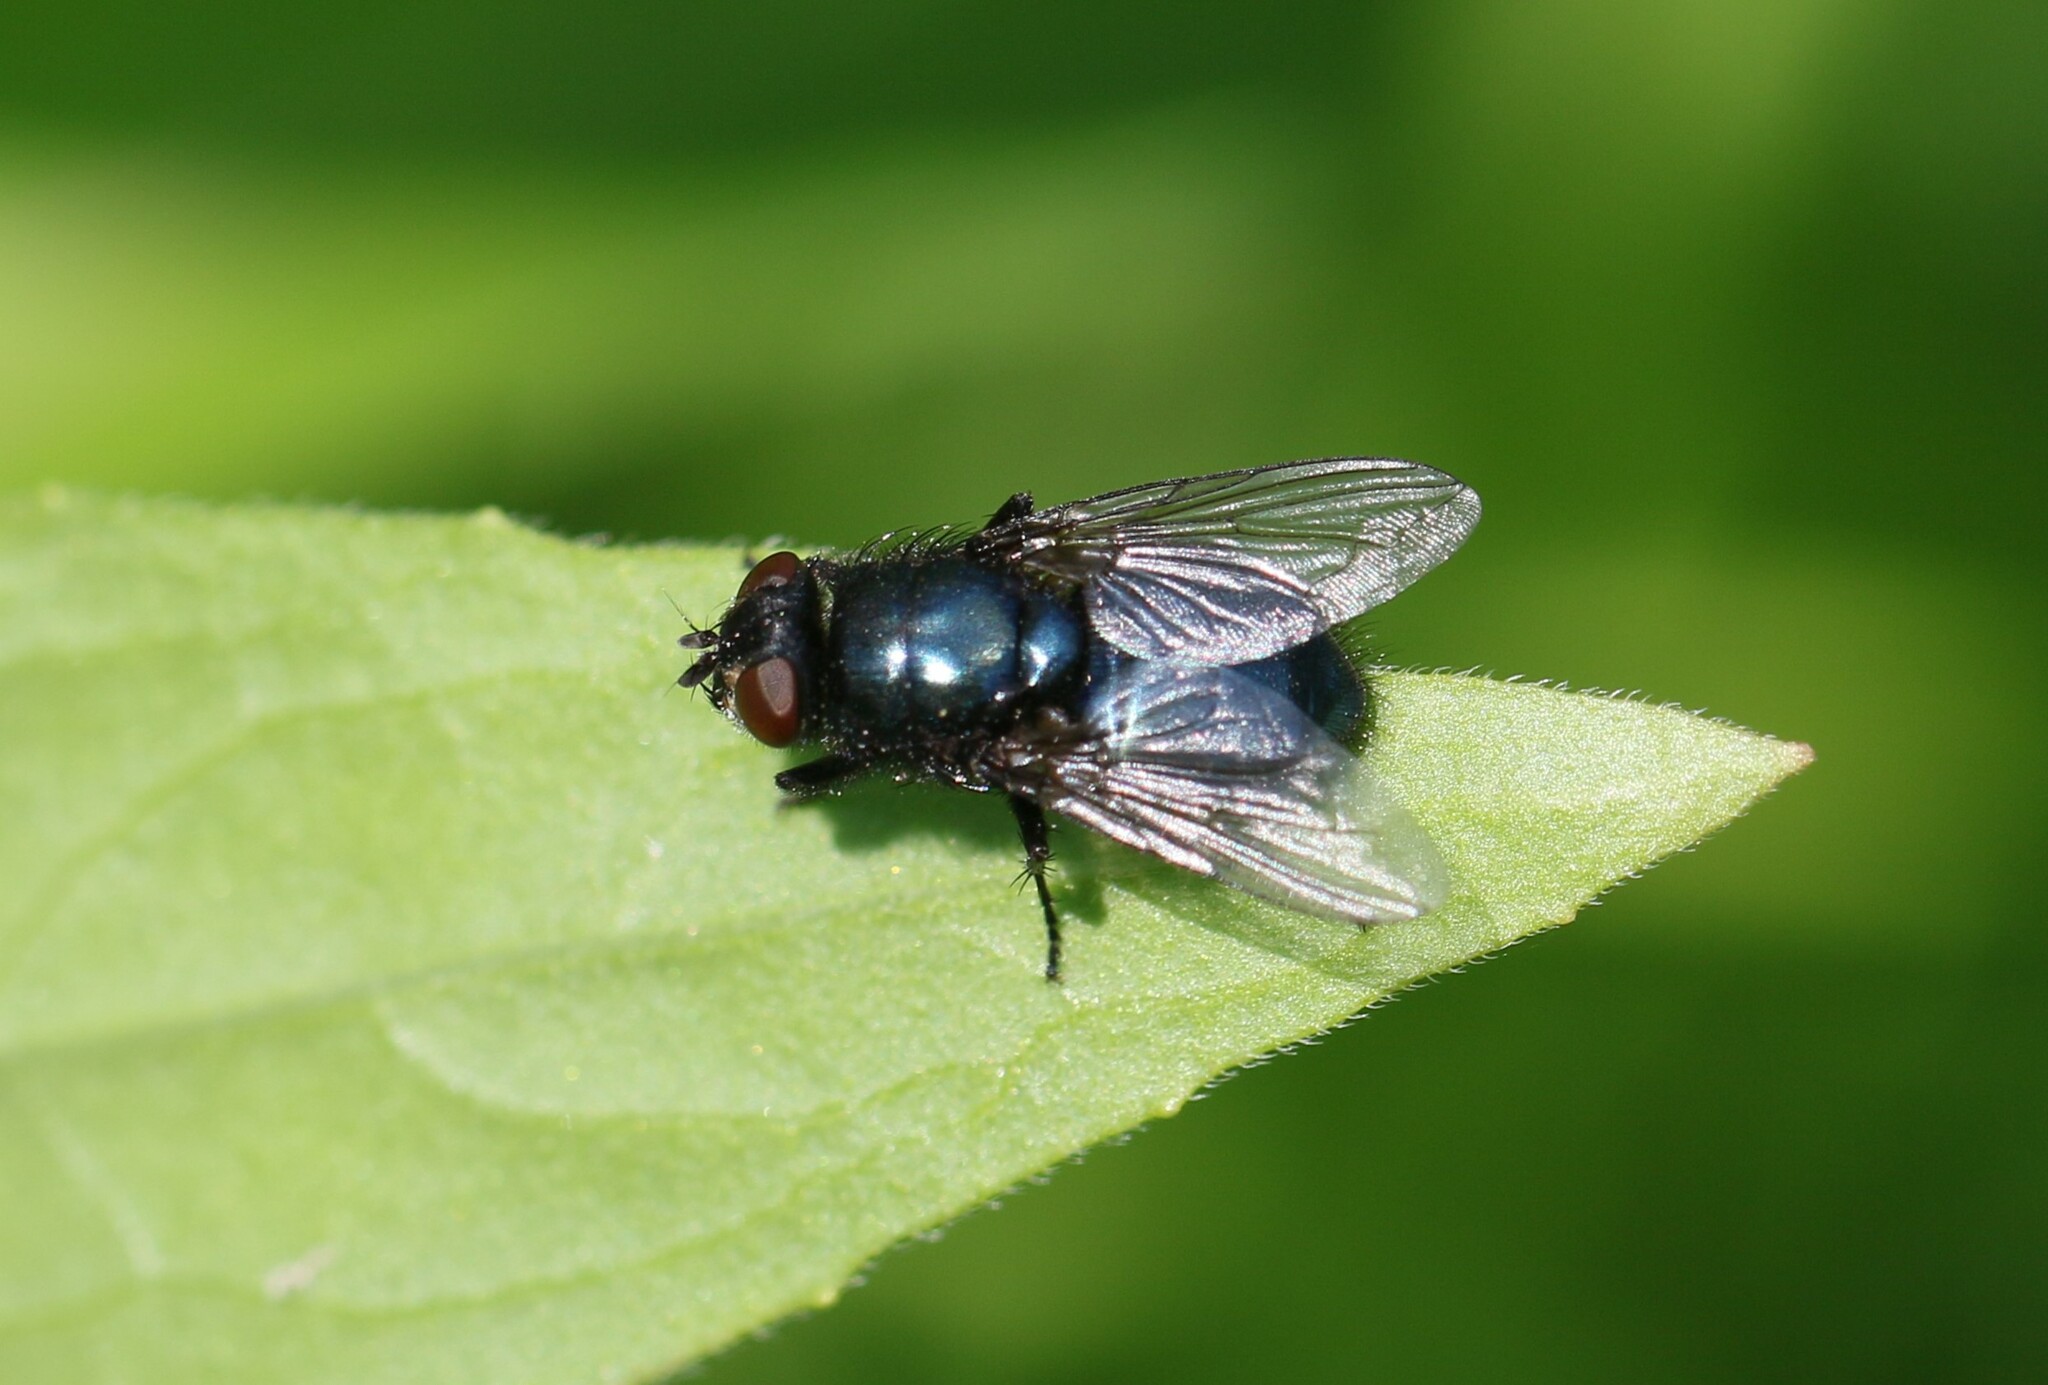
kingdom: Animalia
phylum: Arthropoda
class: Insecta
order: Diptera
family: Calliphoridae
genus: Protophormia
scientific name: Protophormia terraenovae
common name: Blackbottle
